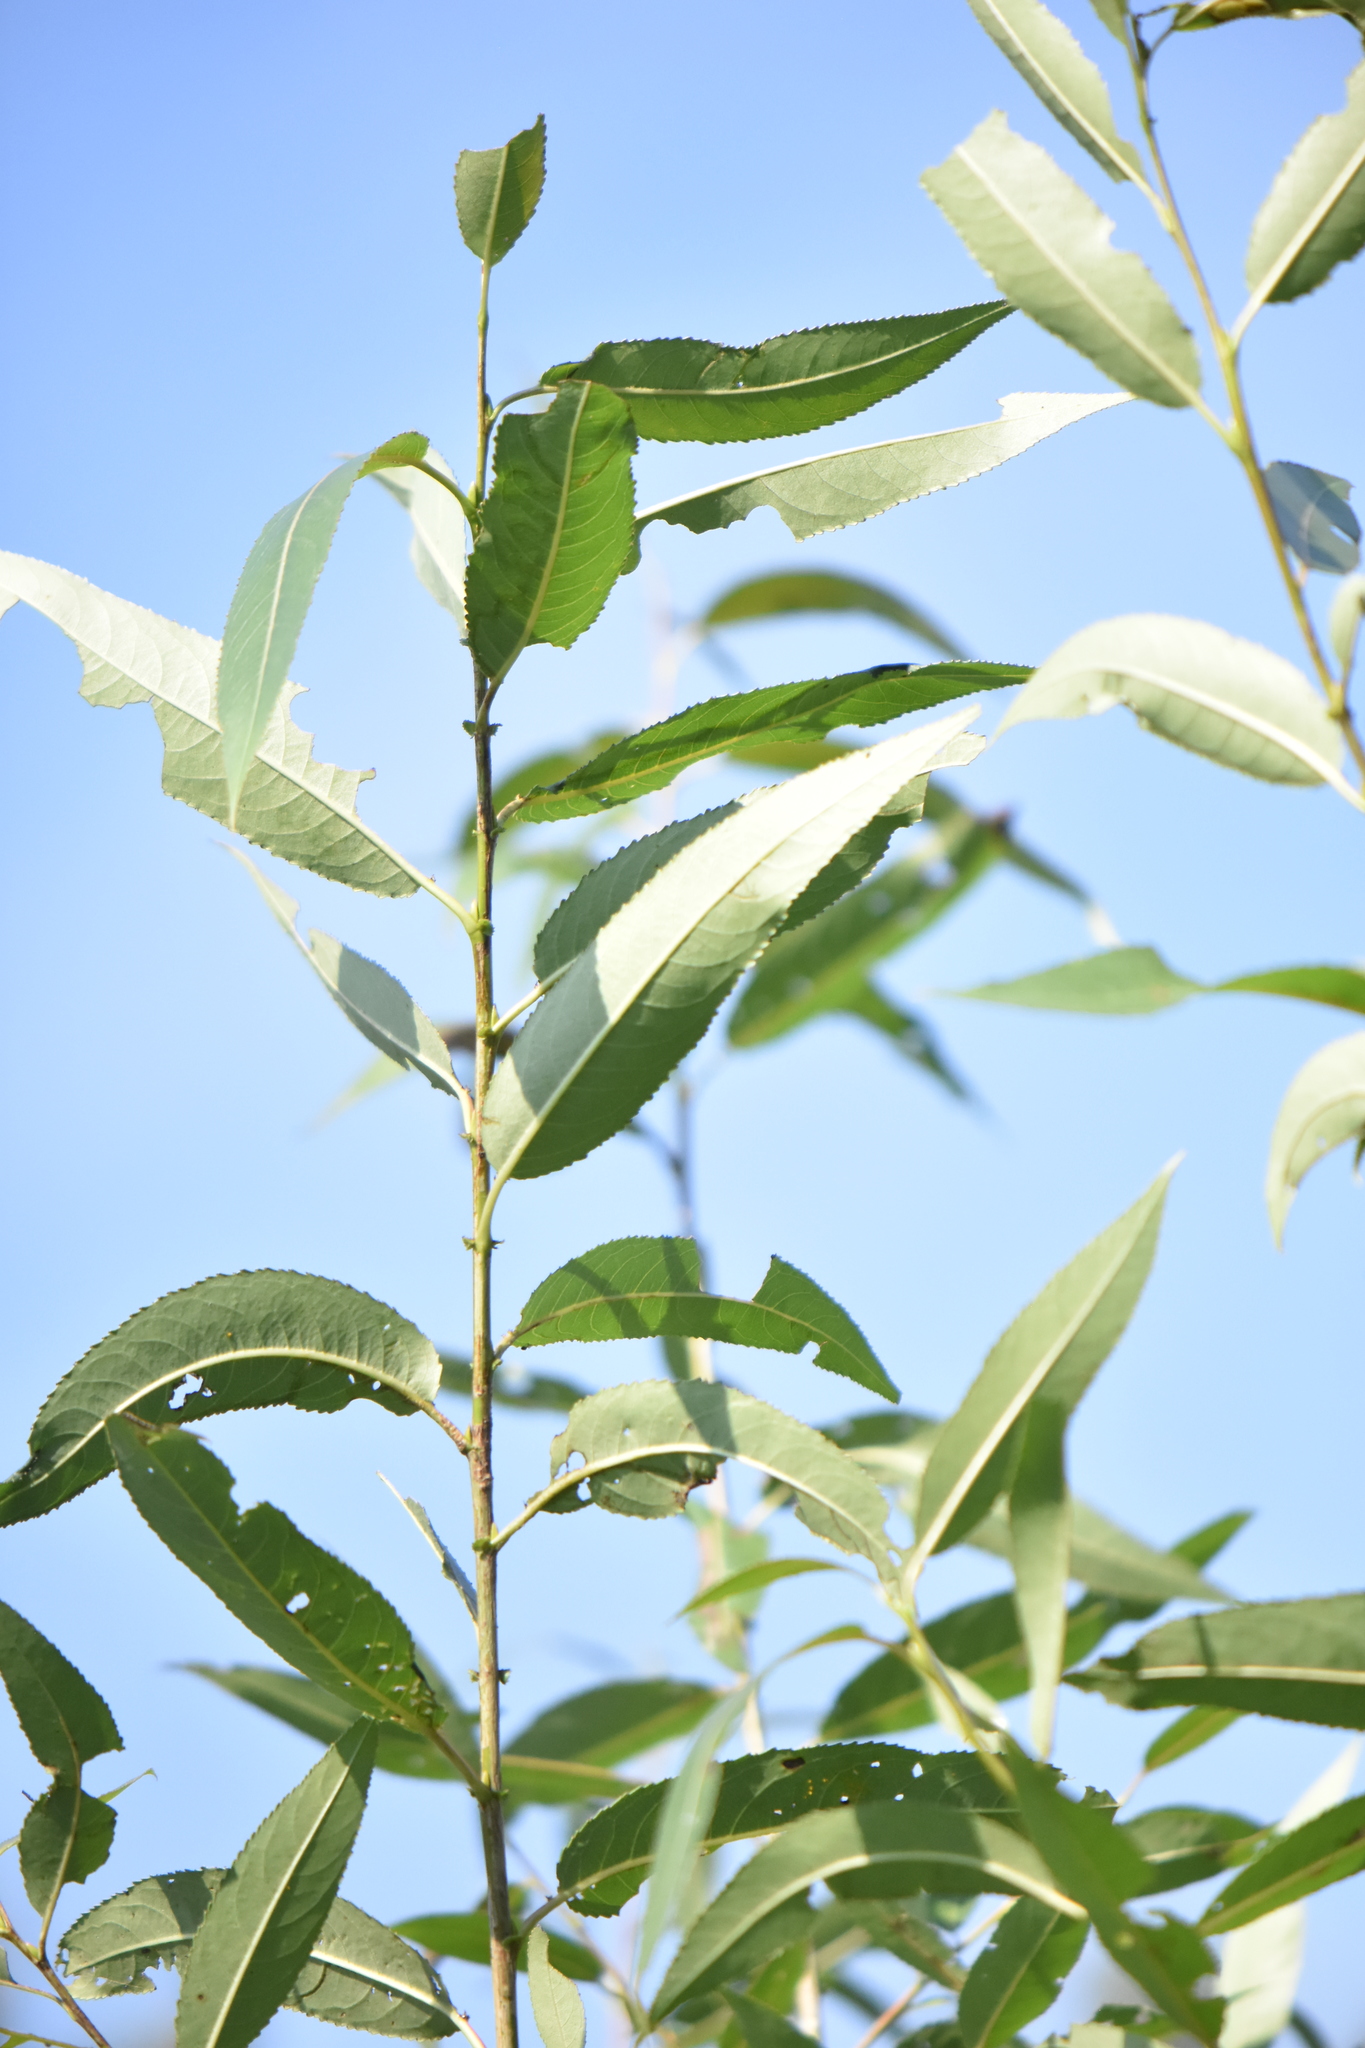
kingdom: Plantae
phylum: Tracheophyta
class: Magnoliopsida
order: Malpighiales
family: Salicaceae
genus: Salix
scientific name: Salix triandra
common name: Almond willow
